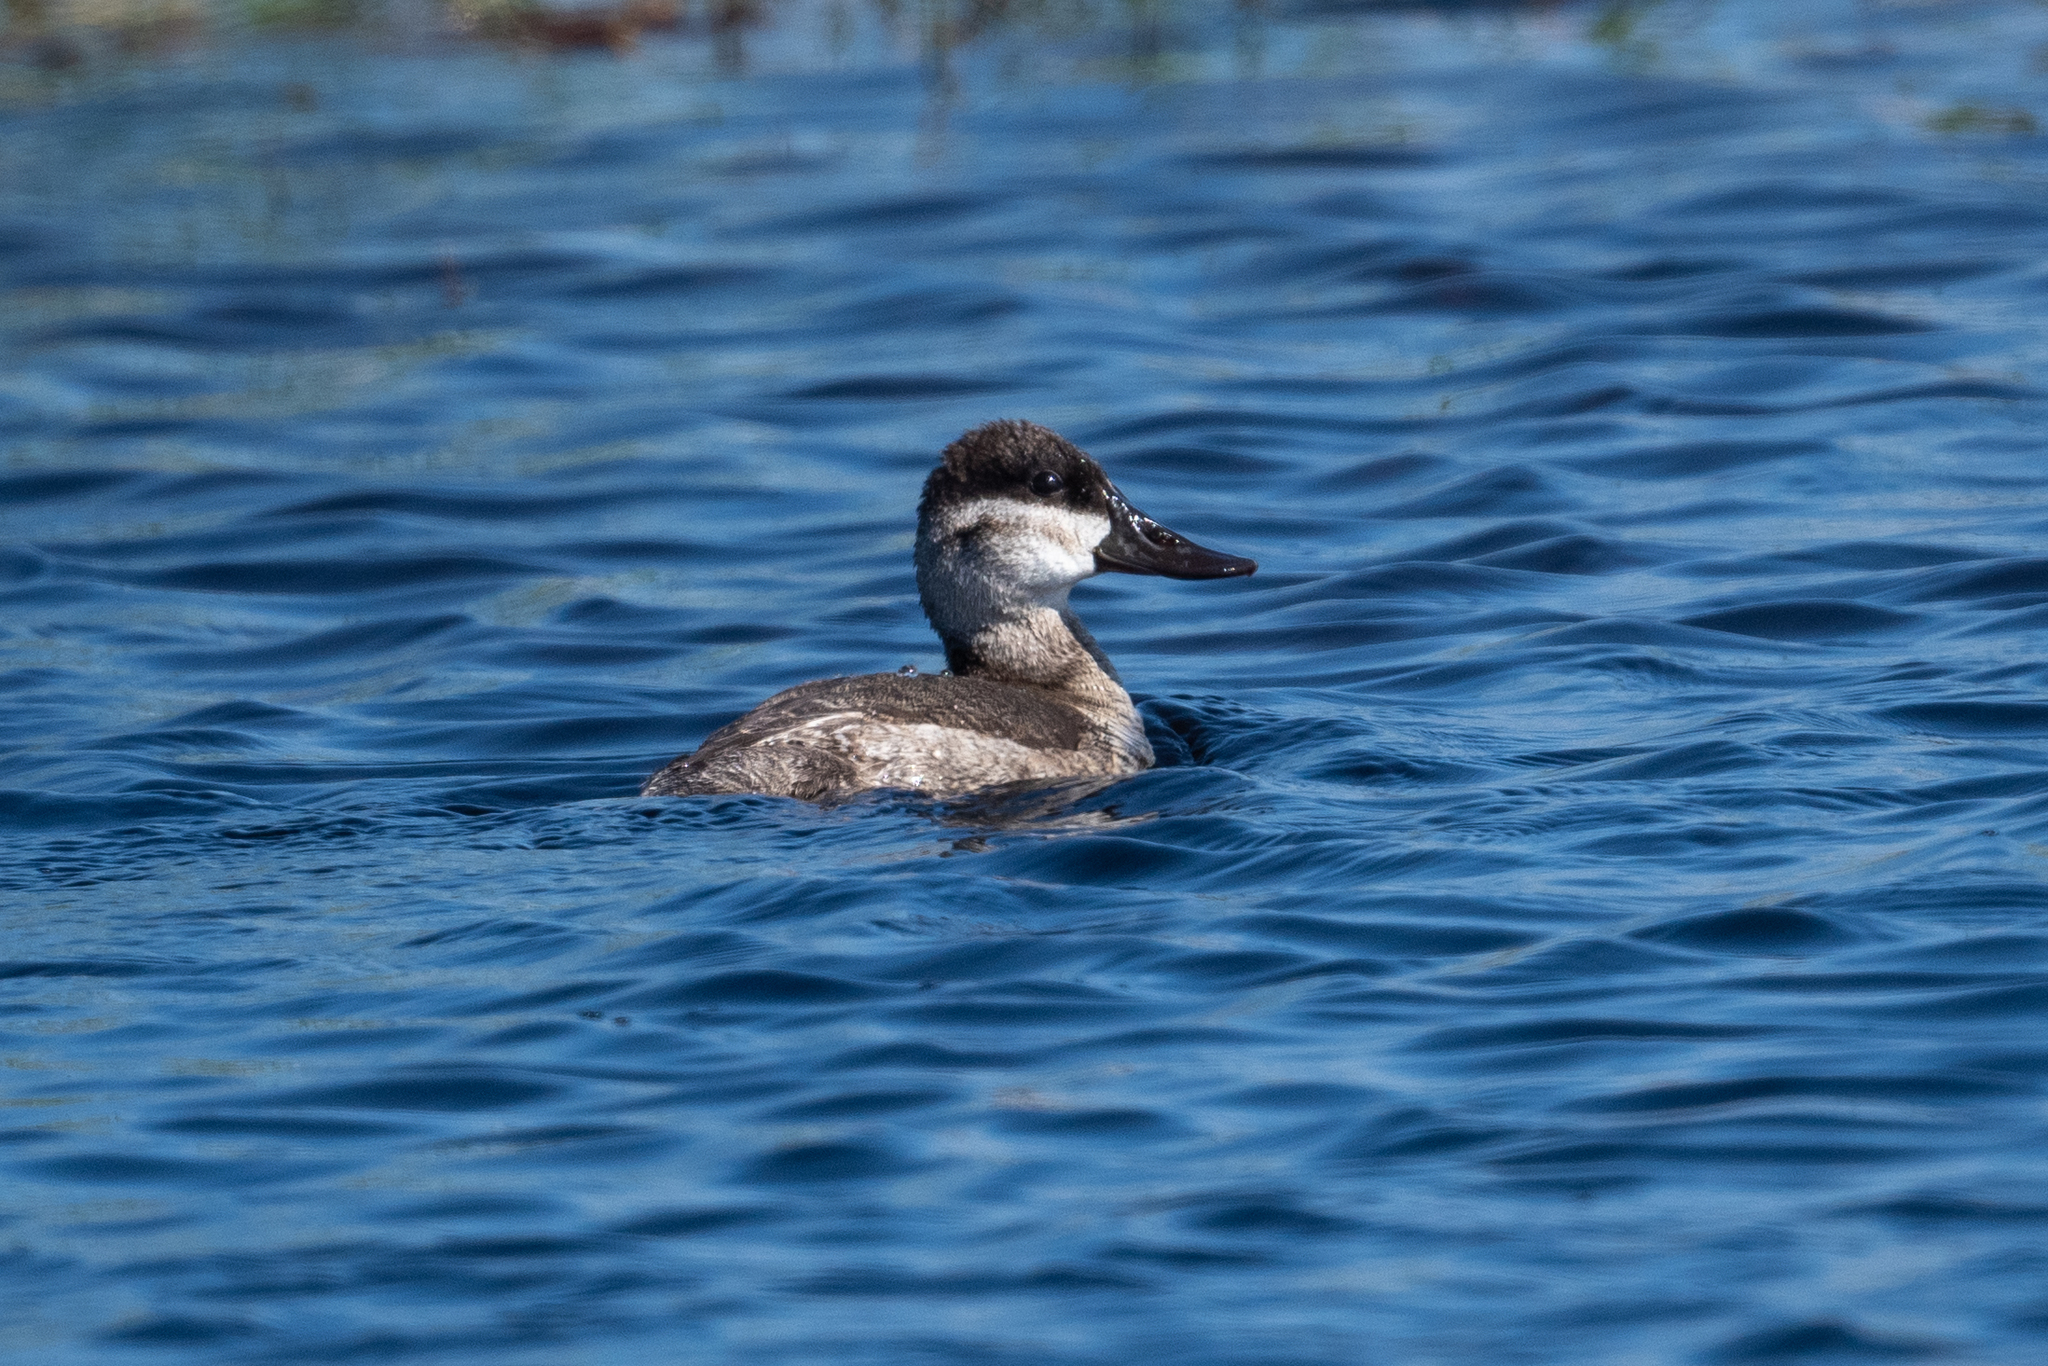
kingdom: Animalia
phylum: Chordata
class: Aves
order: Anseriformes
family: Anatidae
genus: Oxyura
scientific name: Oxyura jamaicensis
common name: Ruddy duck
